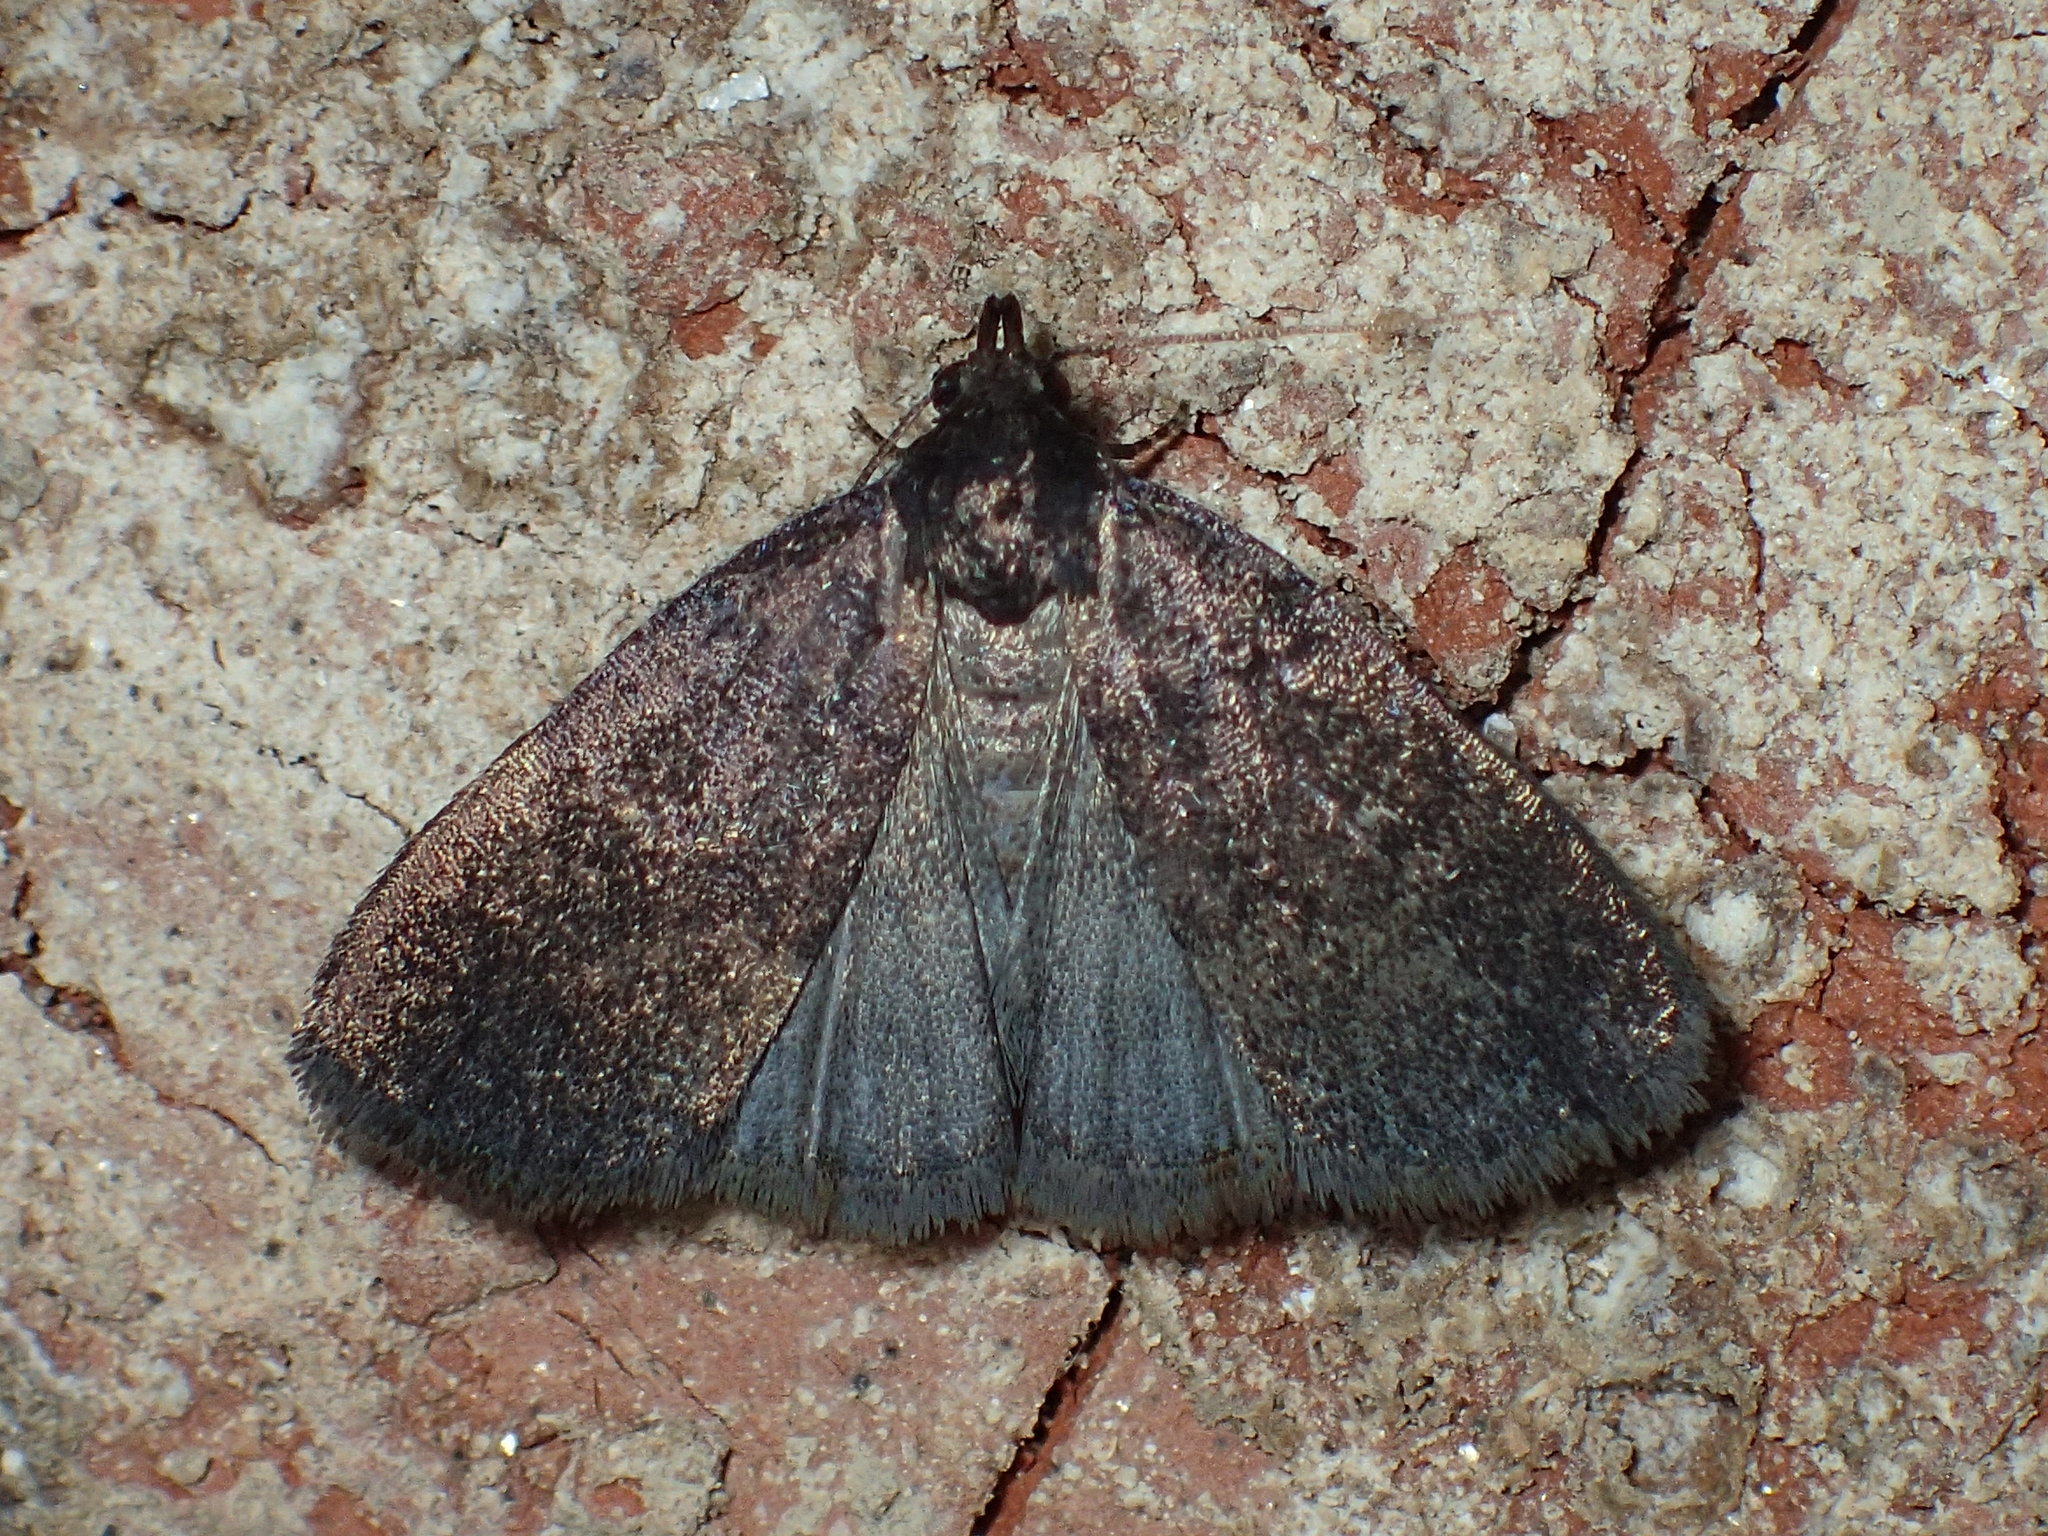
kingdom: Animalia
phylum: Arthropoda
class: Insecta
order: Lepidoptera
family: Erebidae
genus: Idia
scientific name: Idia rotundalis
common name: Rotund idia moth
